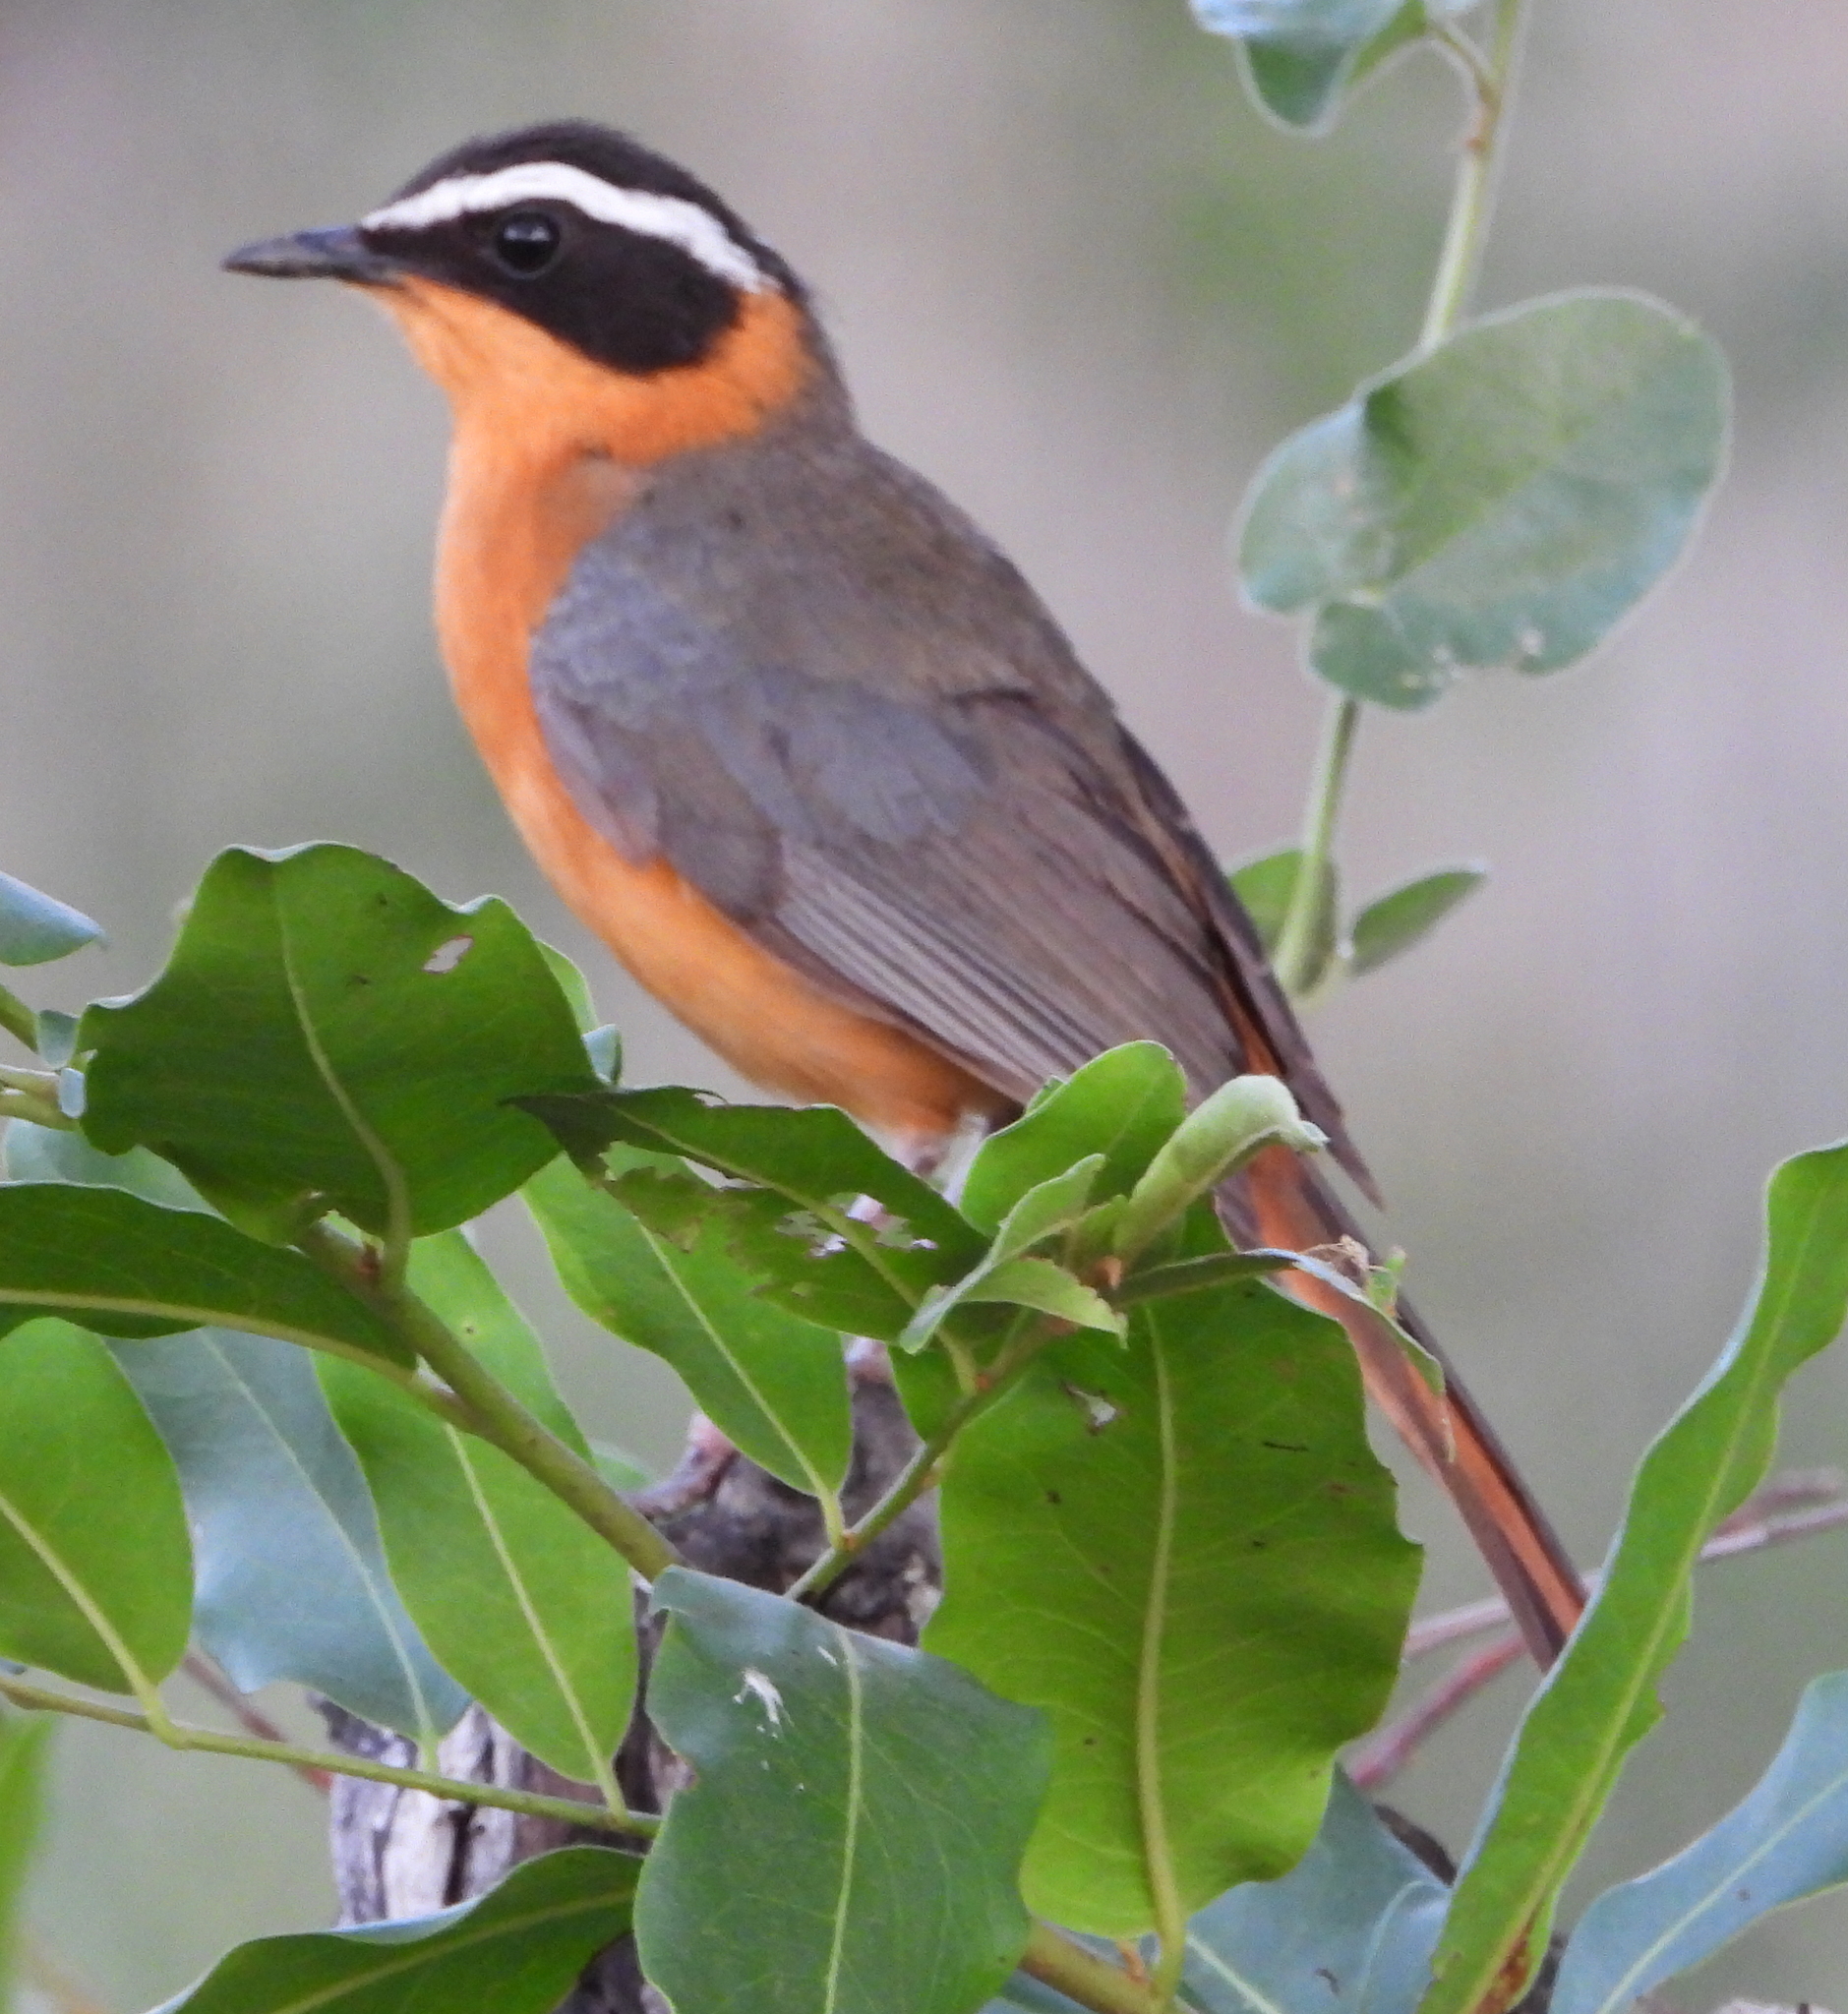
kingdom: Animalia
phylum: Chordata
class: Aves
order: Passeriformes
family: Muscicapidae
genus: Cossypha
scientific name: Cossypha heuglini
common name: White-browed robin-chat
